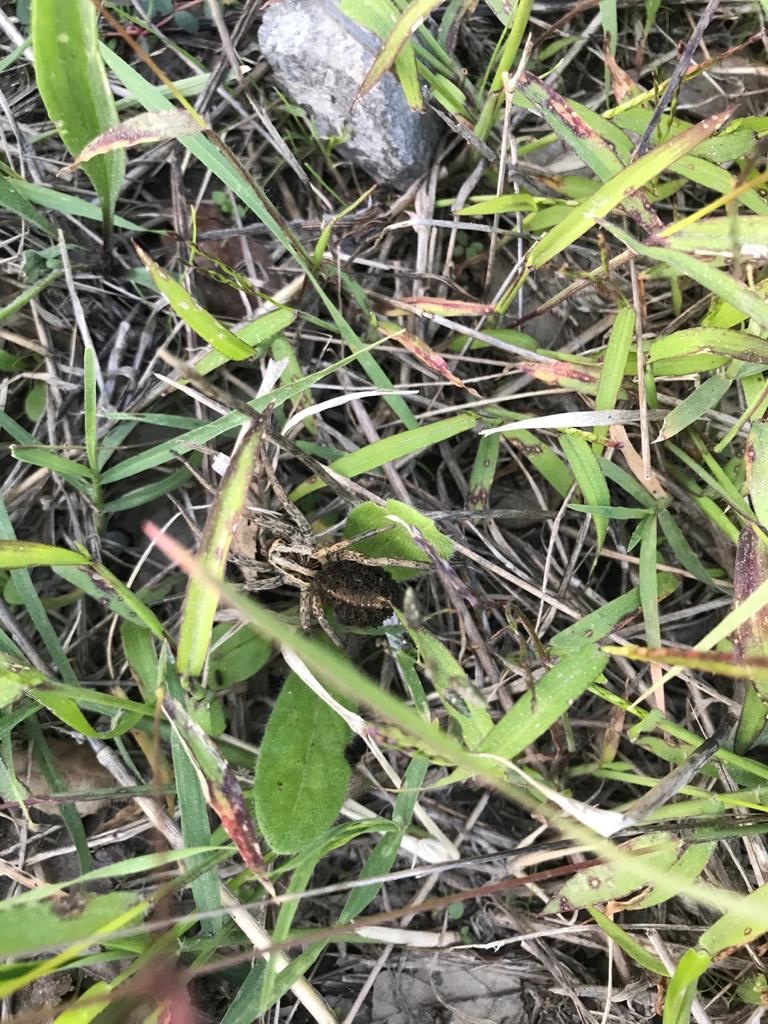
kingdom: Animalia
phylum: Arthropoda
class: Arachnida
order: Araneae
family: Lycosidae
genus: Hogna
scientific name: Hogna radiata
